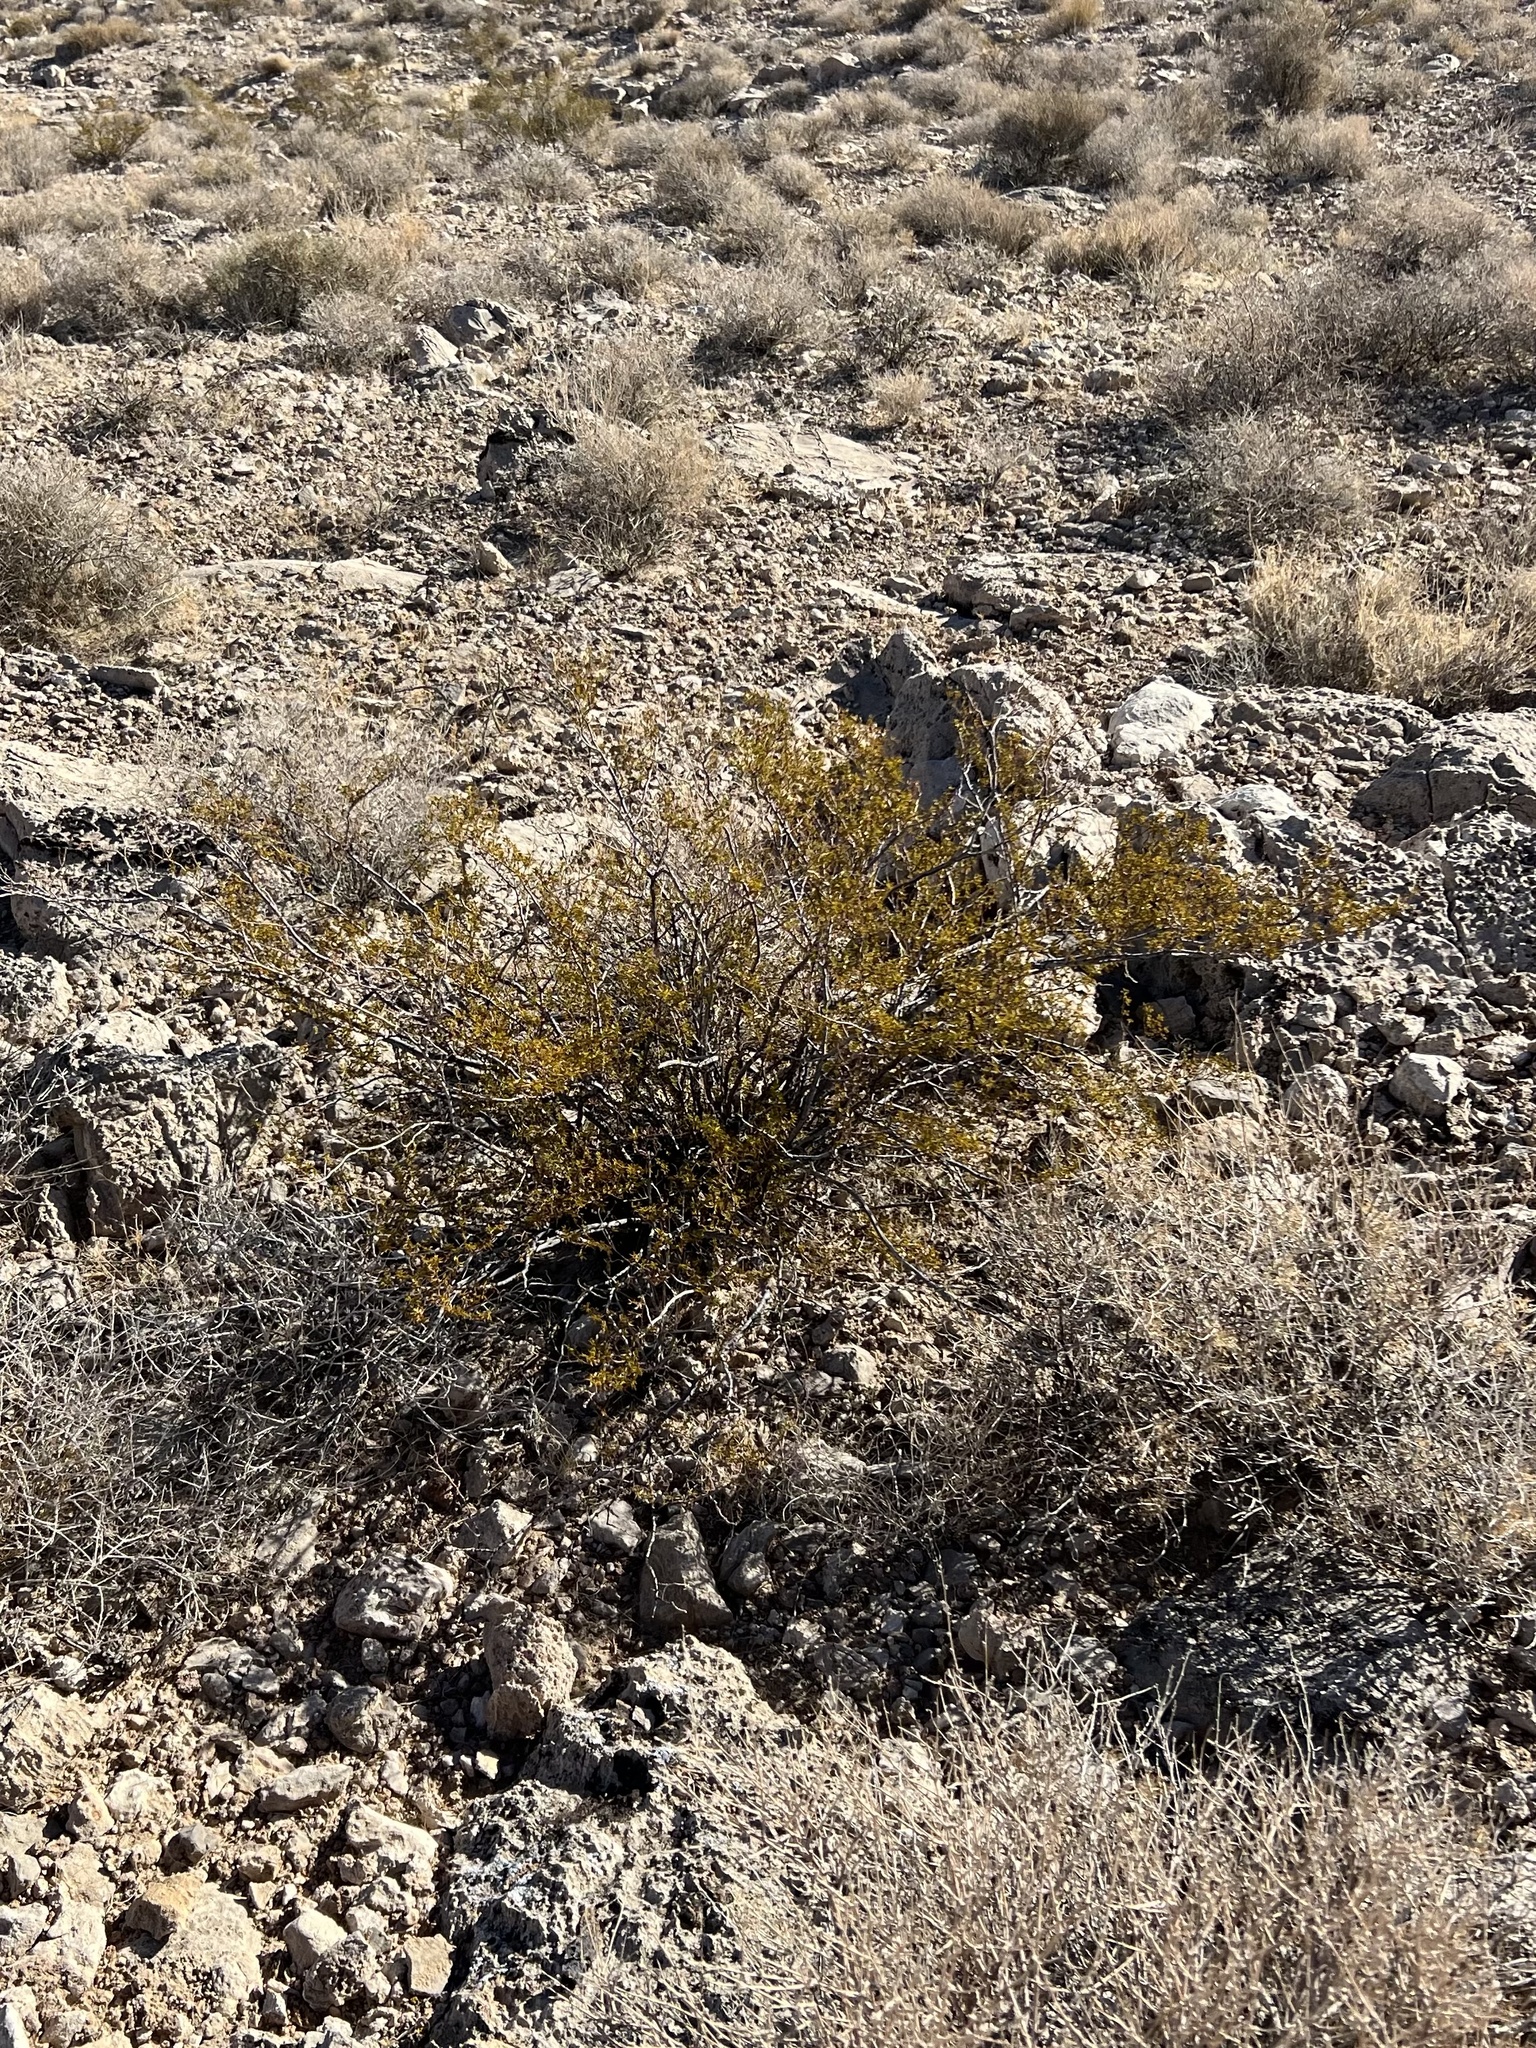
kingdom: Plantae
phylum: Tracheophyta
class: Magnoliopsida
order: Zygophyllales
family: Zygophyllaceae
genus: Larrea
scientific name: Larrea tridentata
